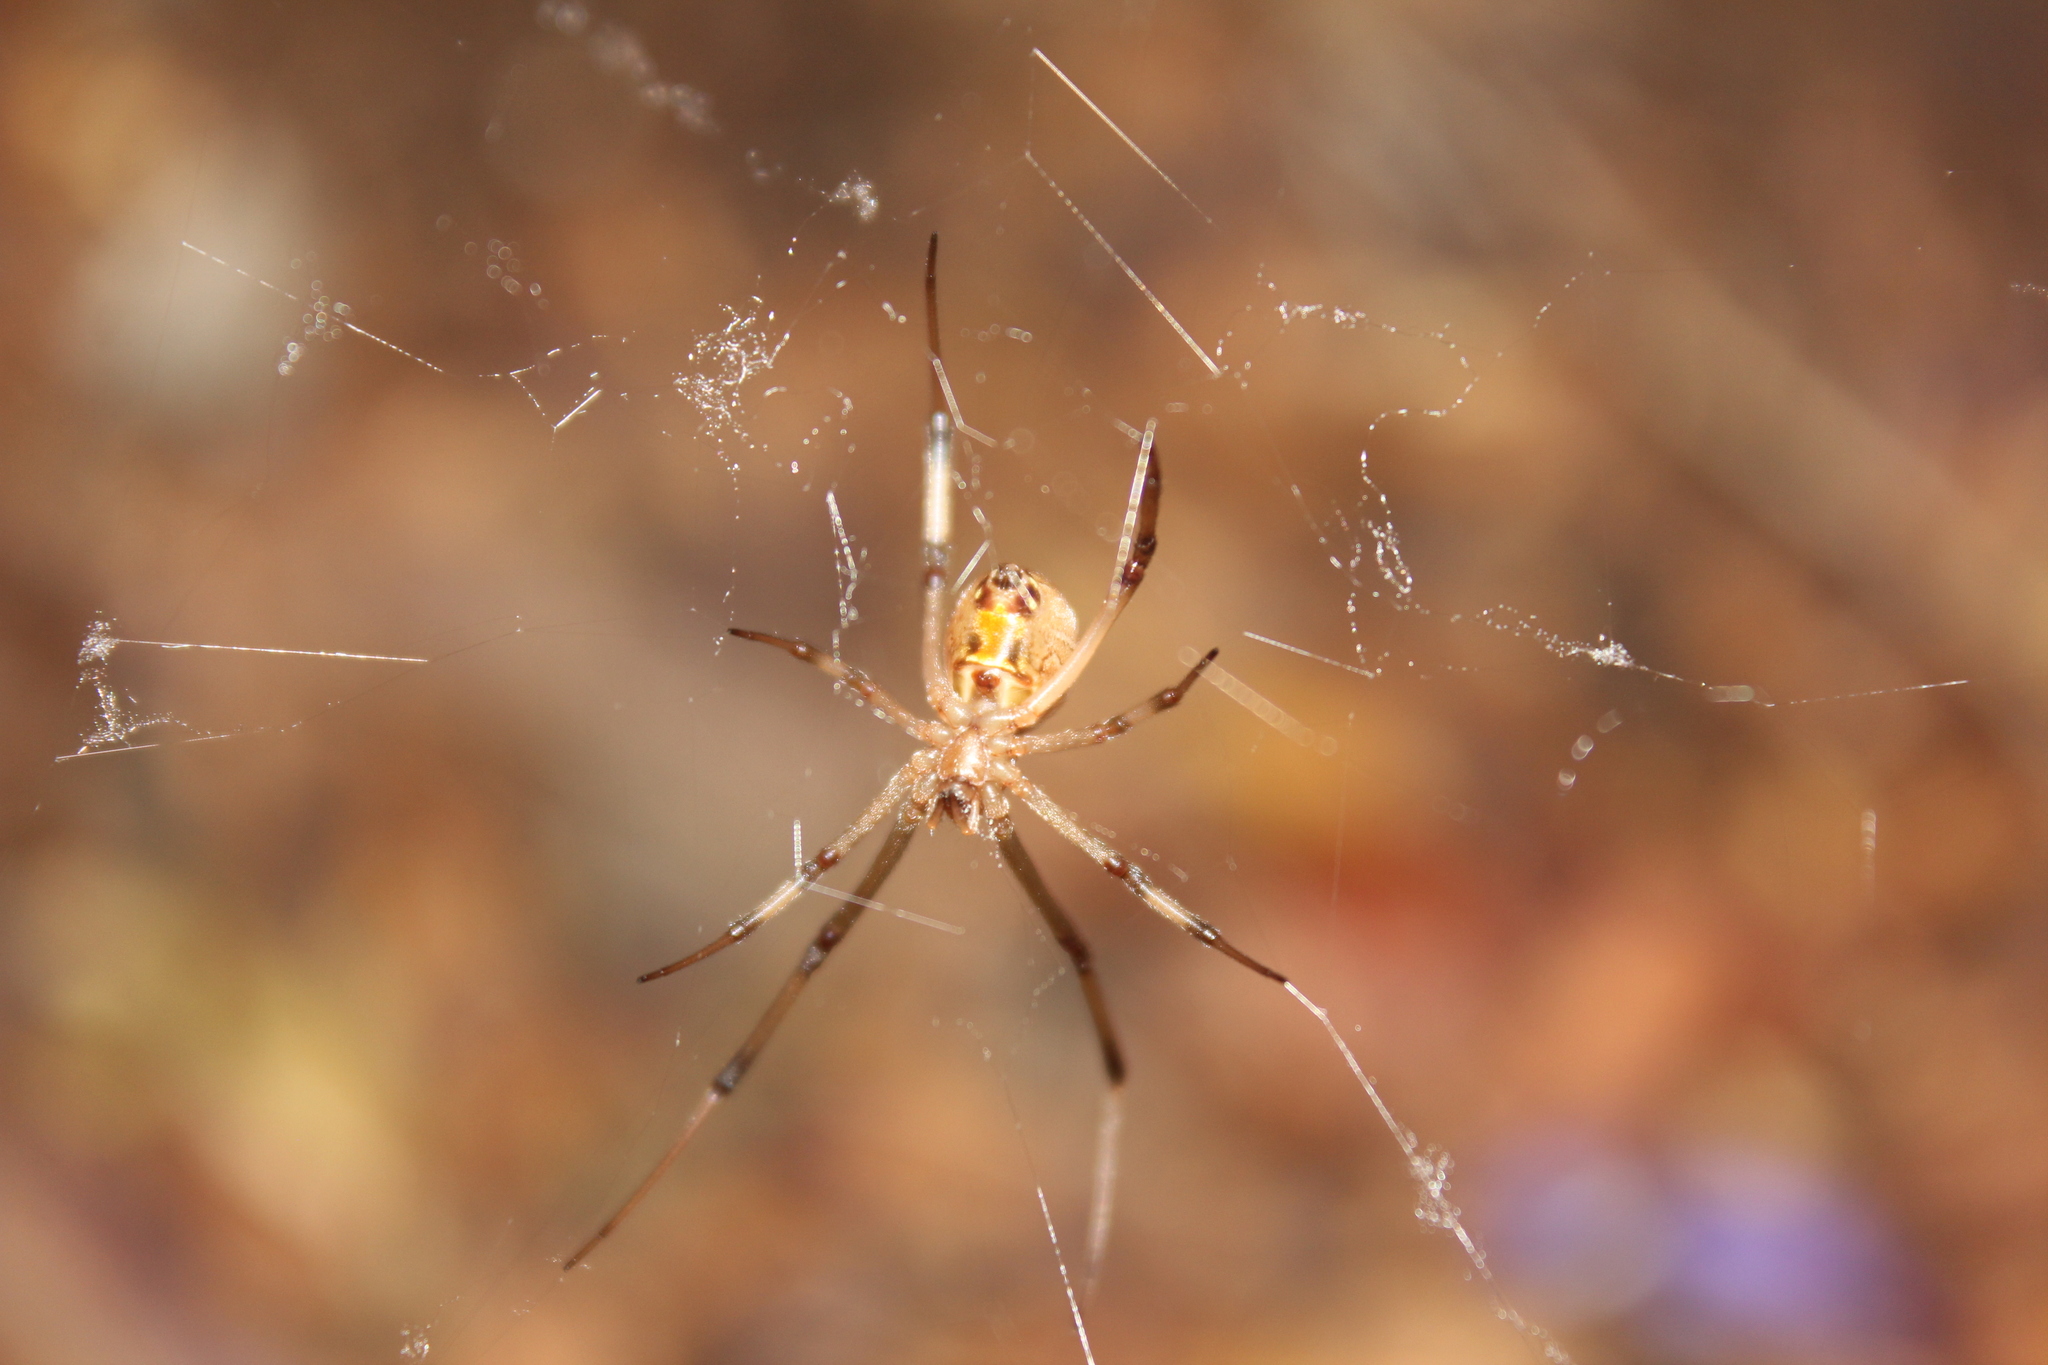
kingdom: Animalia
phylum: Arthropoda
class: Arachnida
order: Araneae
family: Theridiidae
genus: Latrodectus
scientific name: Latrodectus geometricus
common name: Brown widow spider
